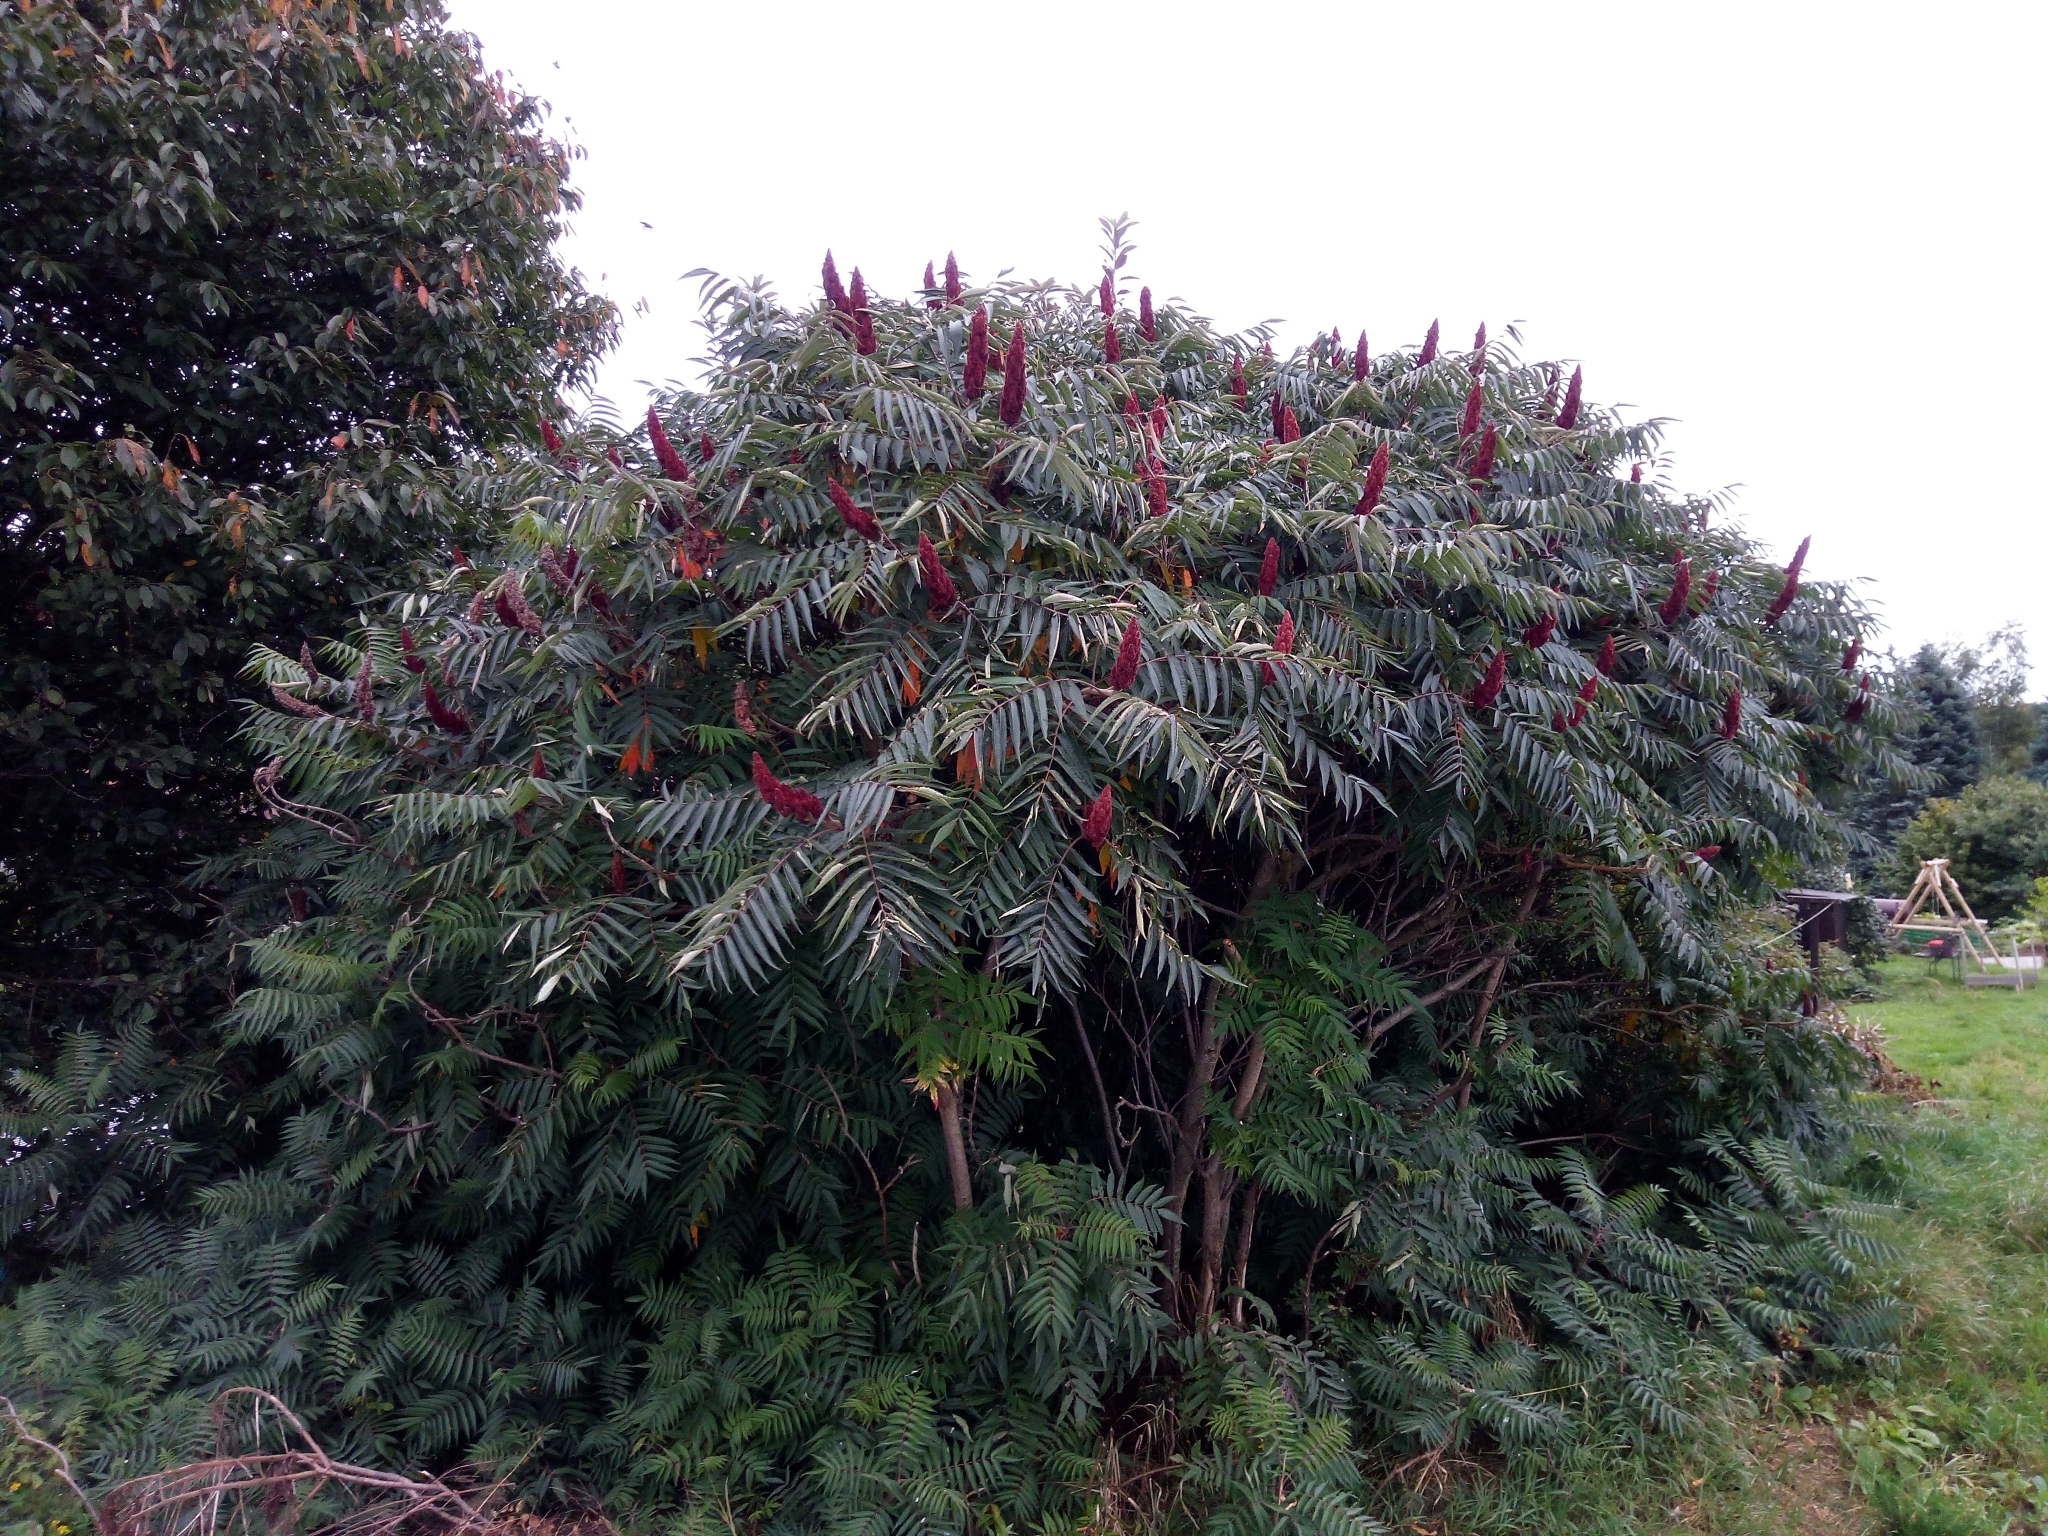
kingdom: Plantae
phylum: Tracheophyta
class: Magnoliopsida
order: Sapindales
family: Anacardiaceae
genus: Rhus
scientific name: Rhus typhina
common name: Staghorn sumac
